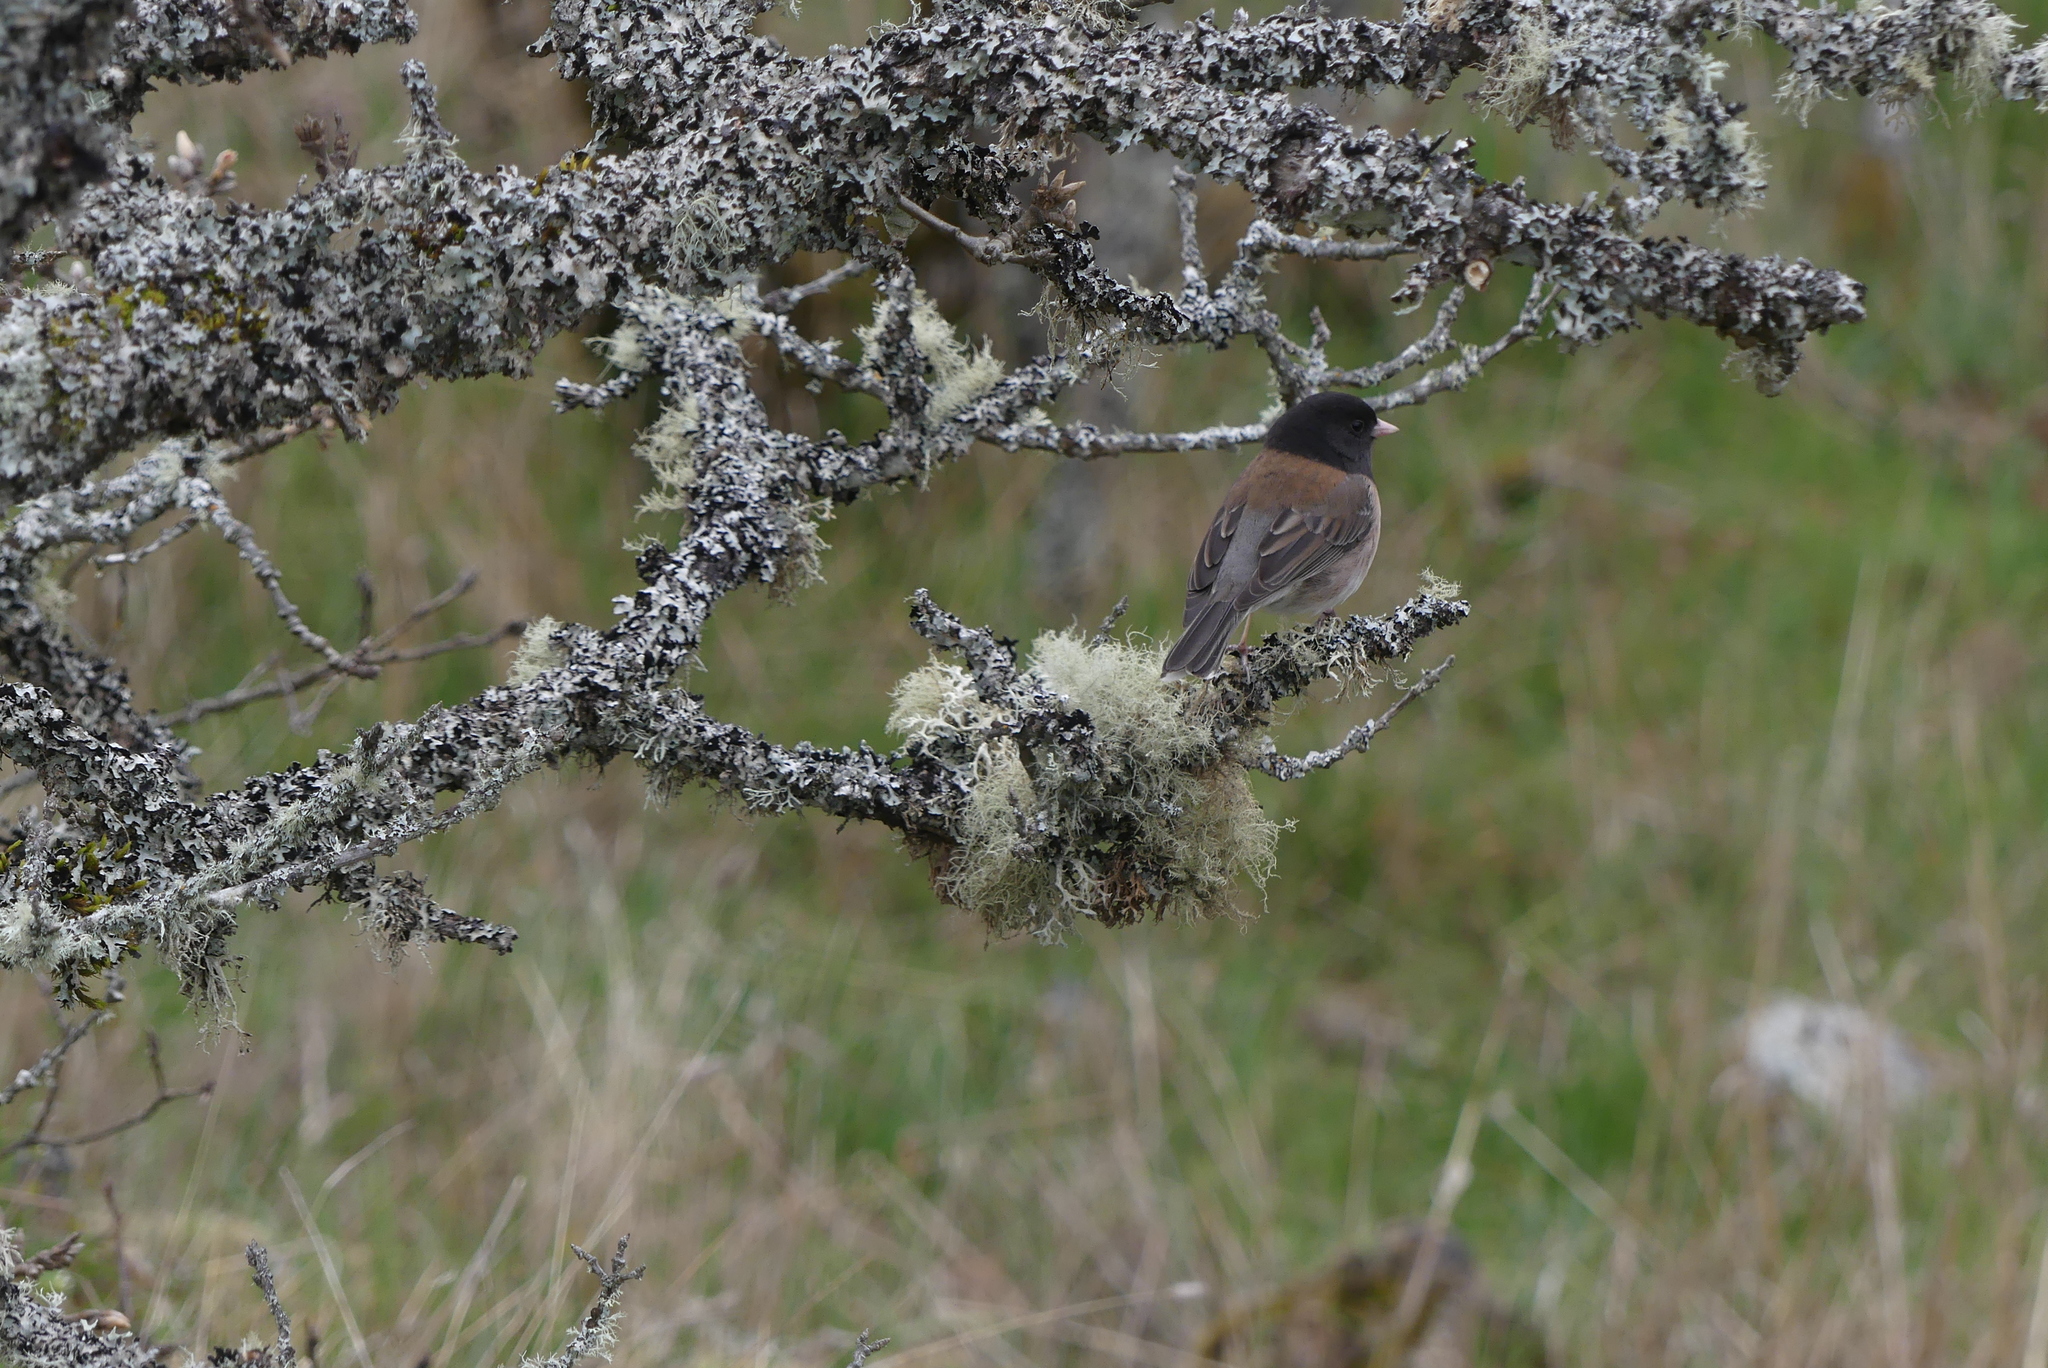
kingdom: Animalia
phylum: Chordata
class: Aves
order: Passeriformes
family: Passerellidae
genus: Junco
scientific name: Junco hyemalis
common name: Dark-eyed junco
